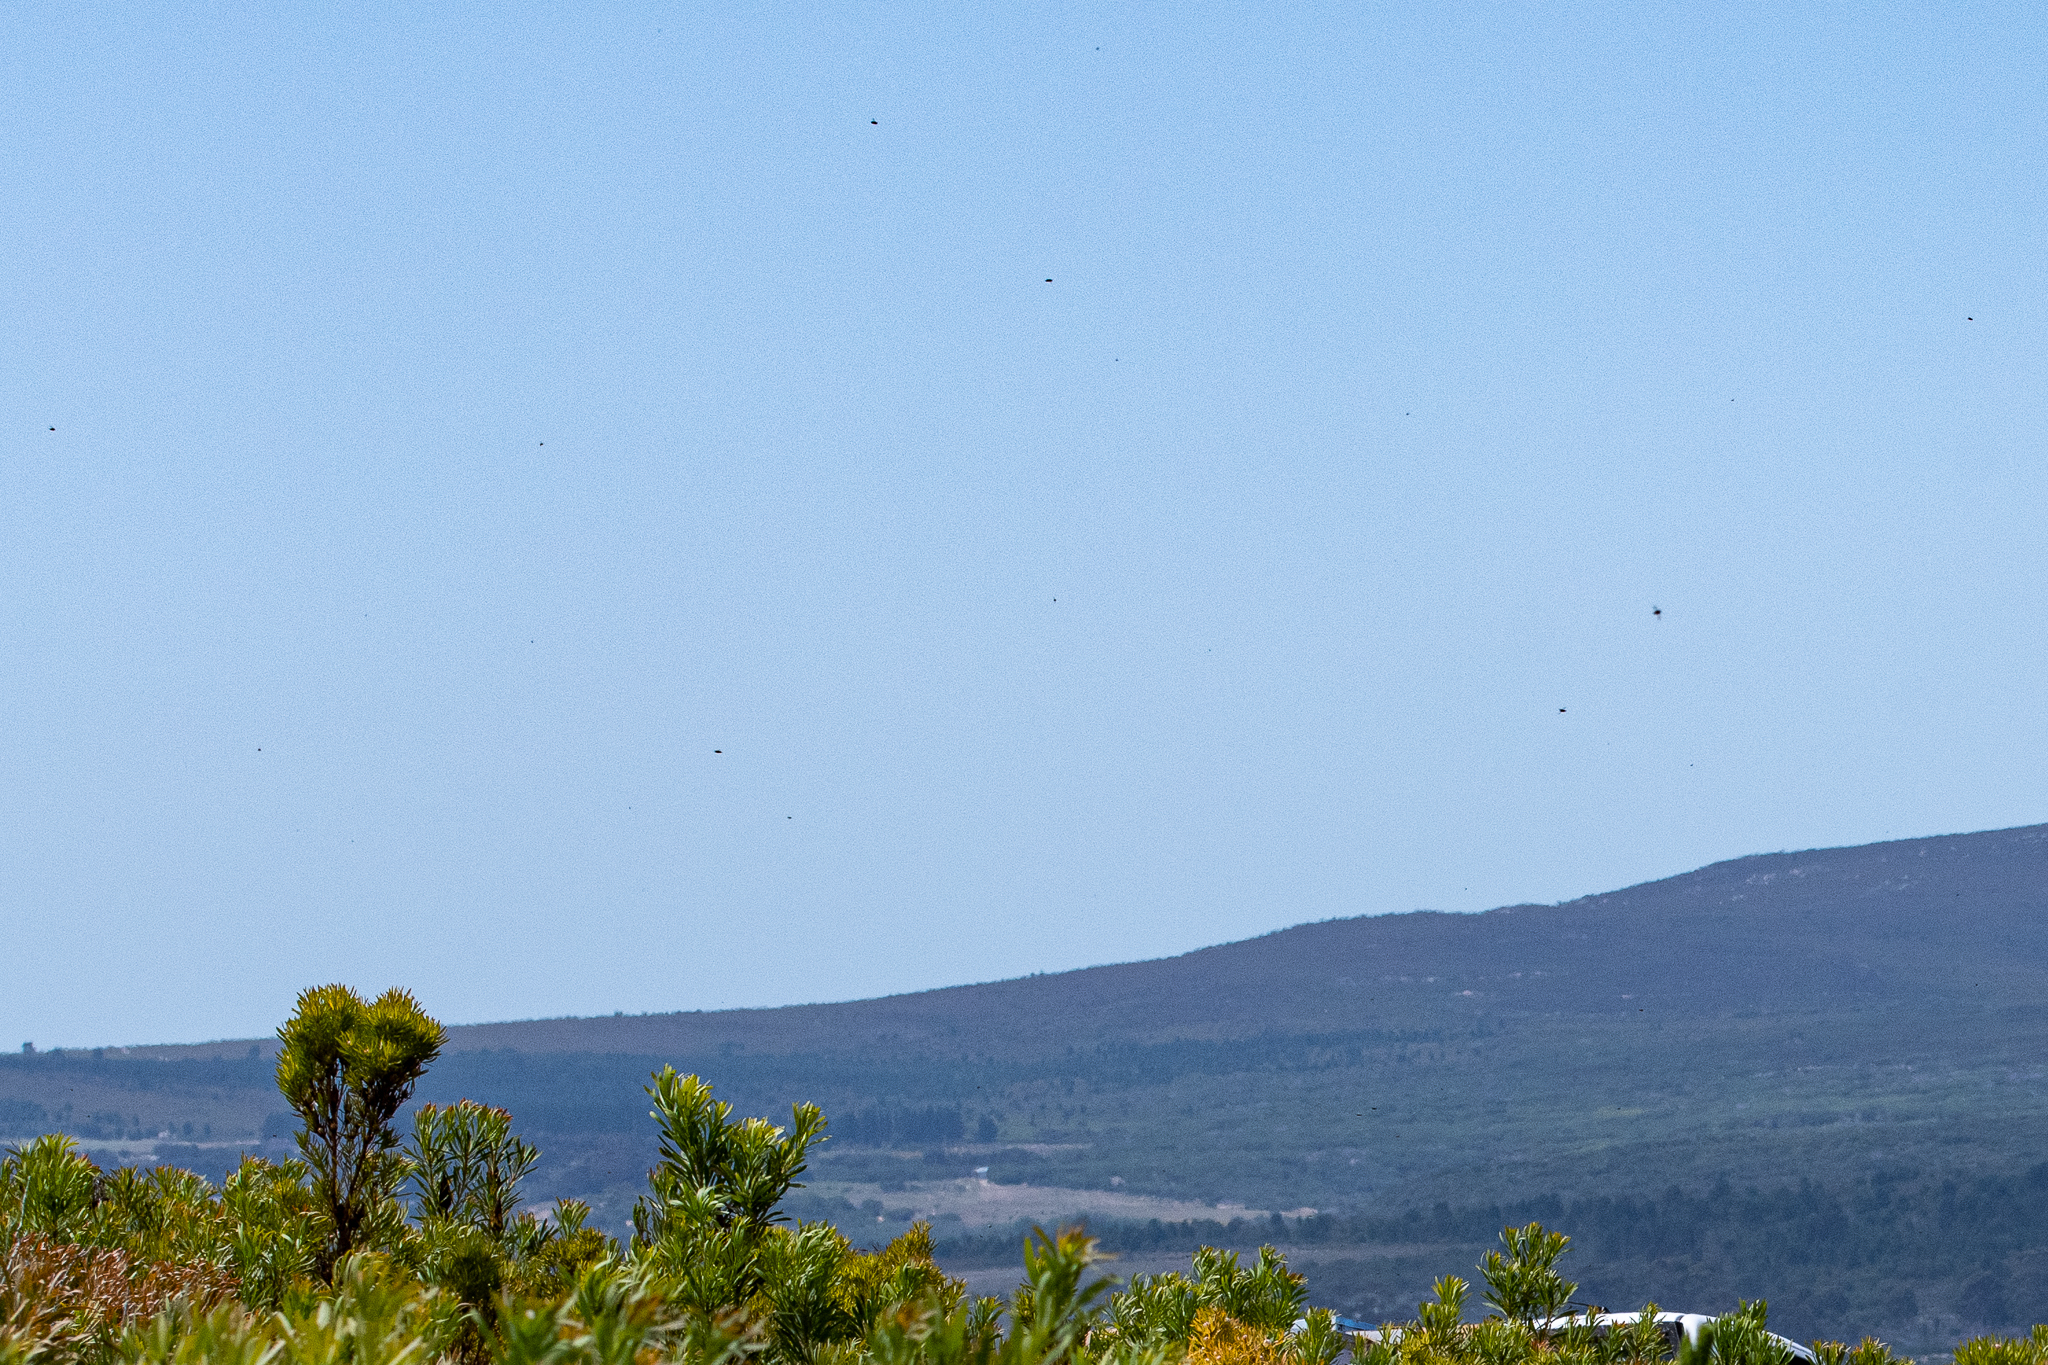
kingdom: Animalia
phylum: Arthropoda
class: Insecta
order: Hymenoptera
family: Apidae
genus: Apis
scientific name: Apis mellifera
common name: Honey bee
